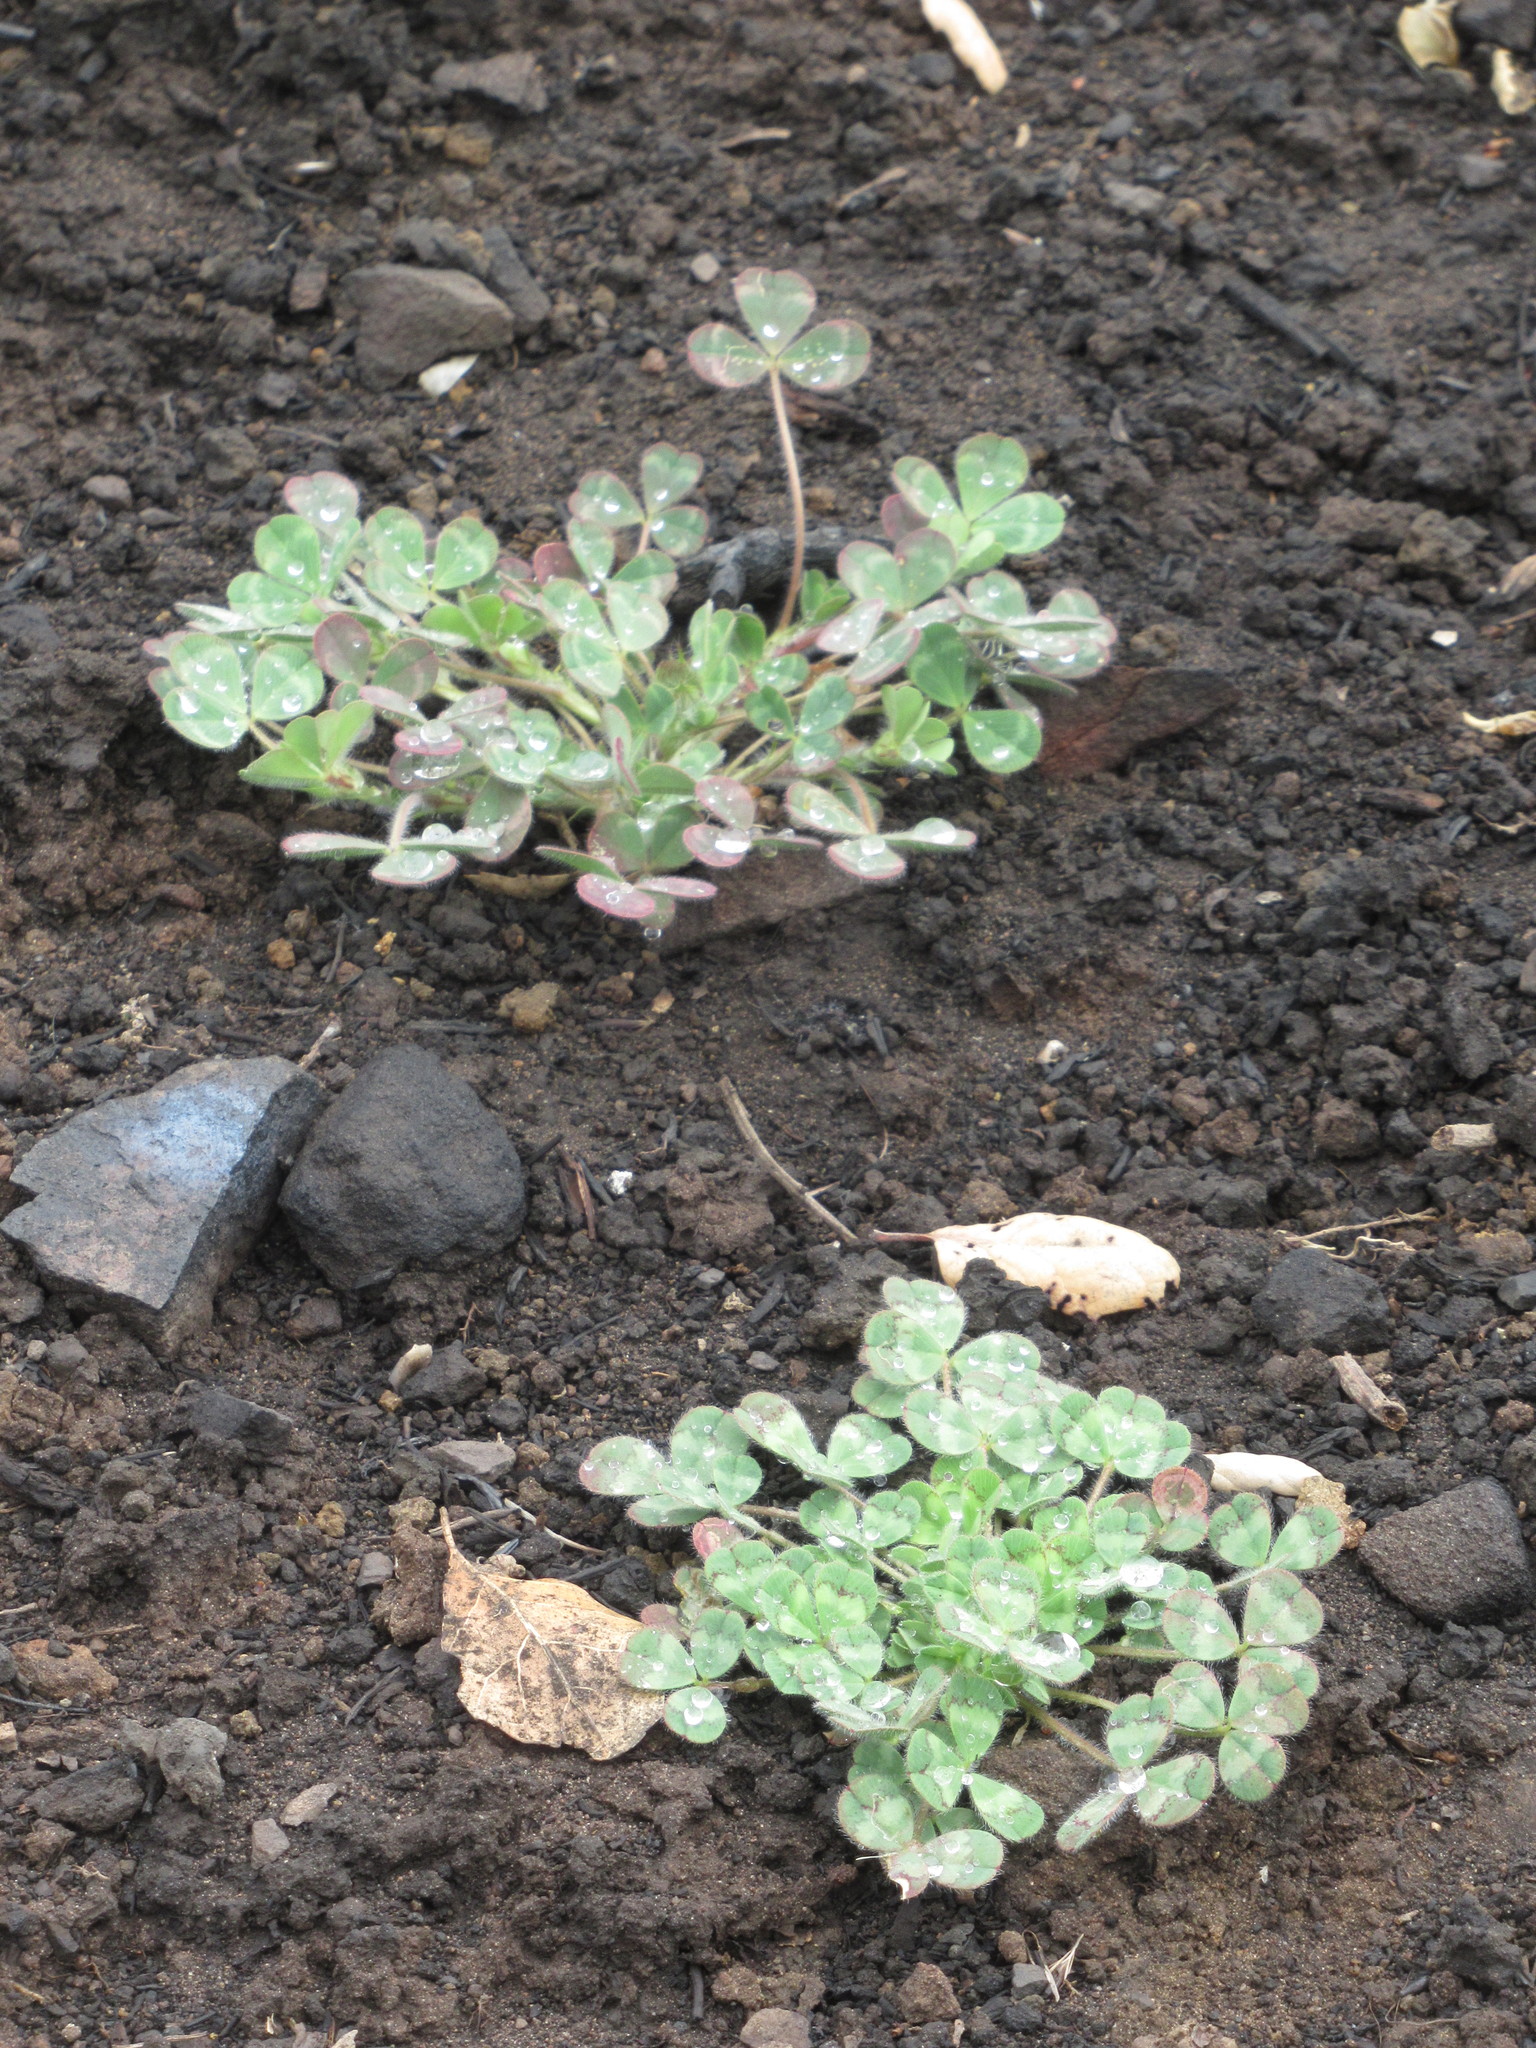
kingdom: Plantae
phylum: Tracheophyta
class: Magnoliopsida
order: Fabales
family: Fabaceae
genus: Trifolium
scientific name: Trifolium hirtum
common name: Rose clover
